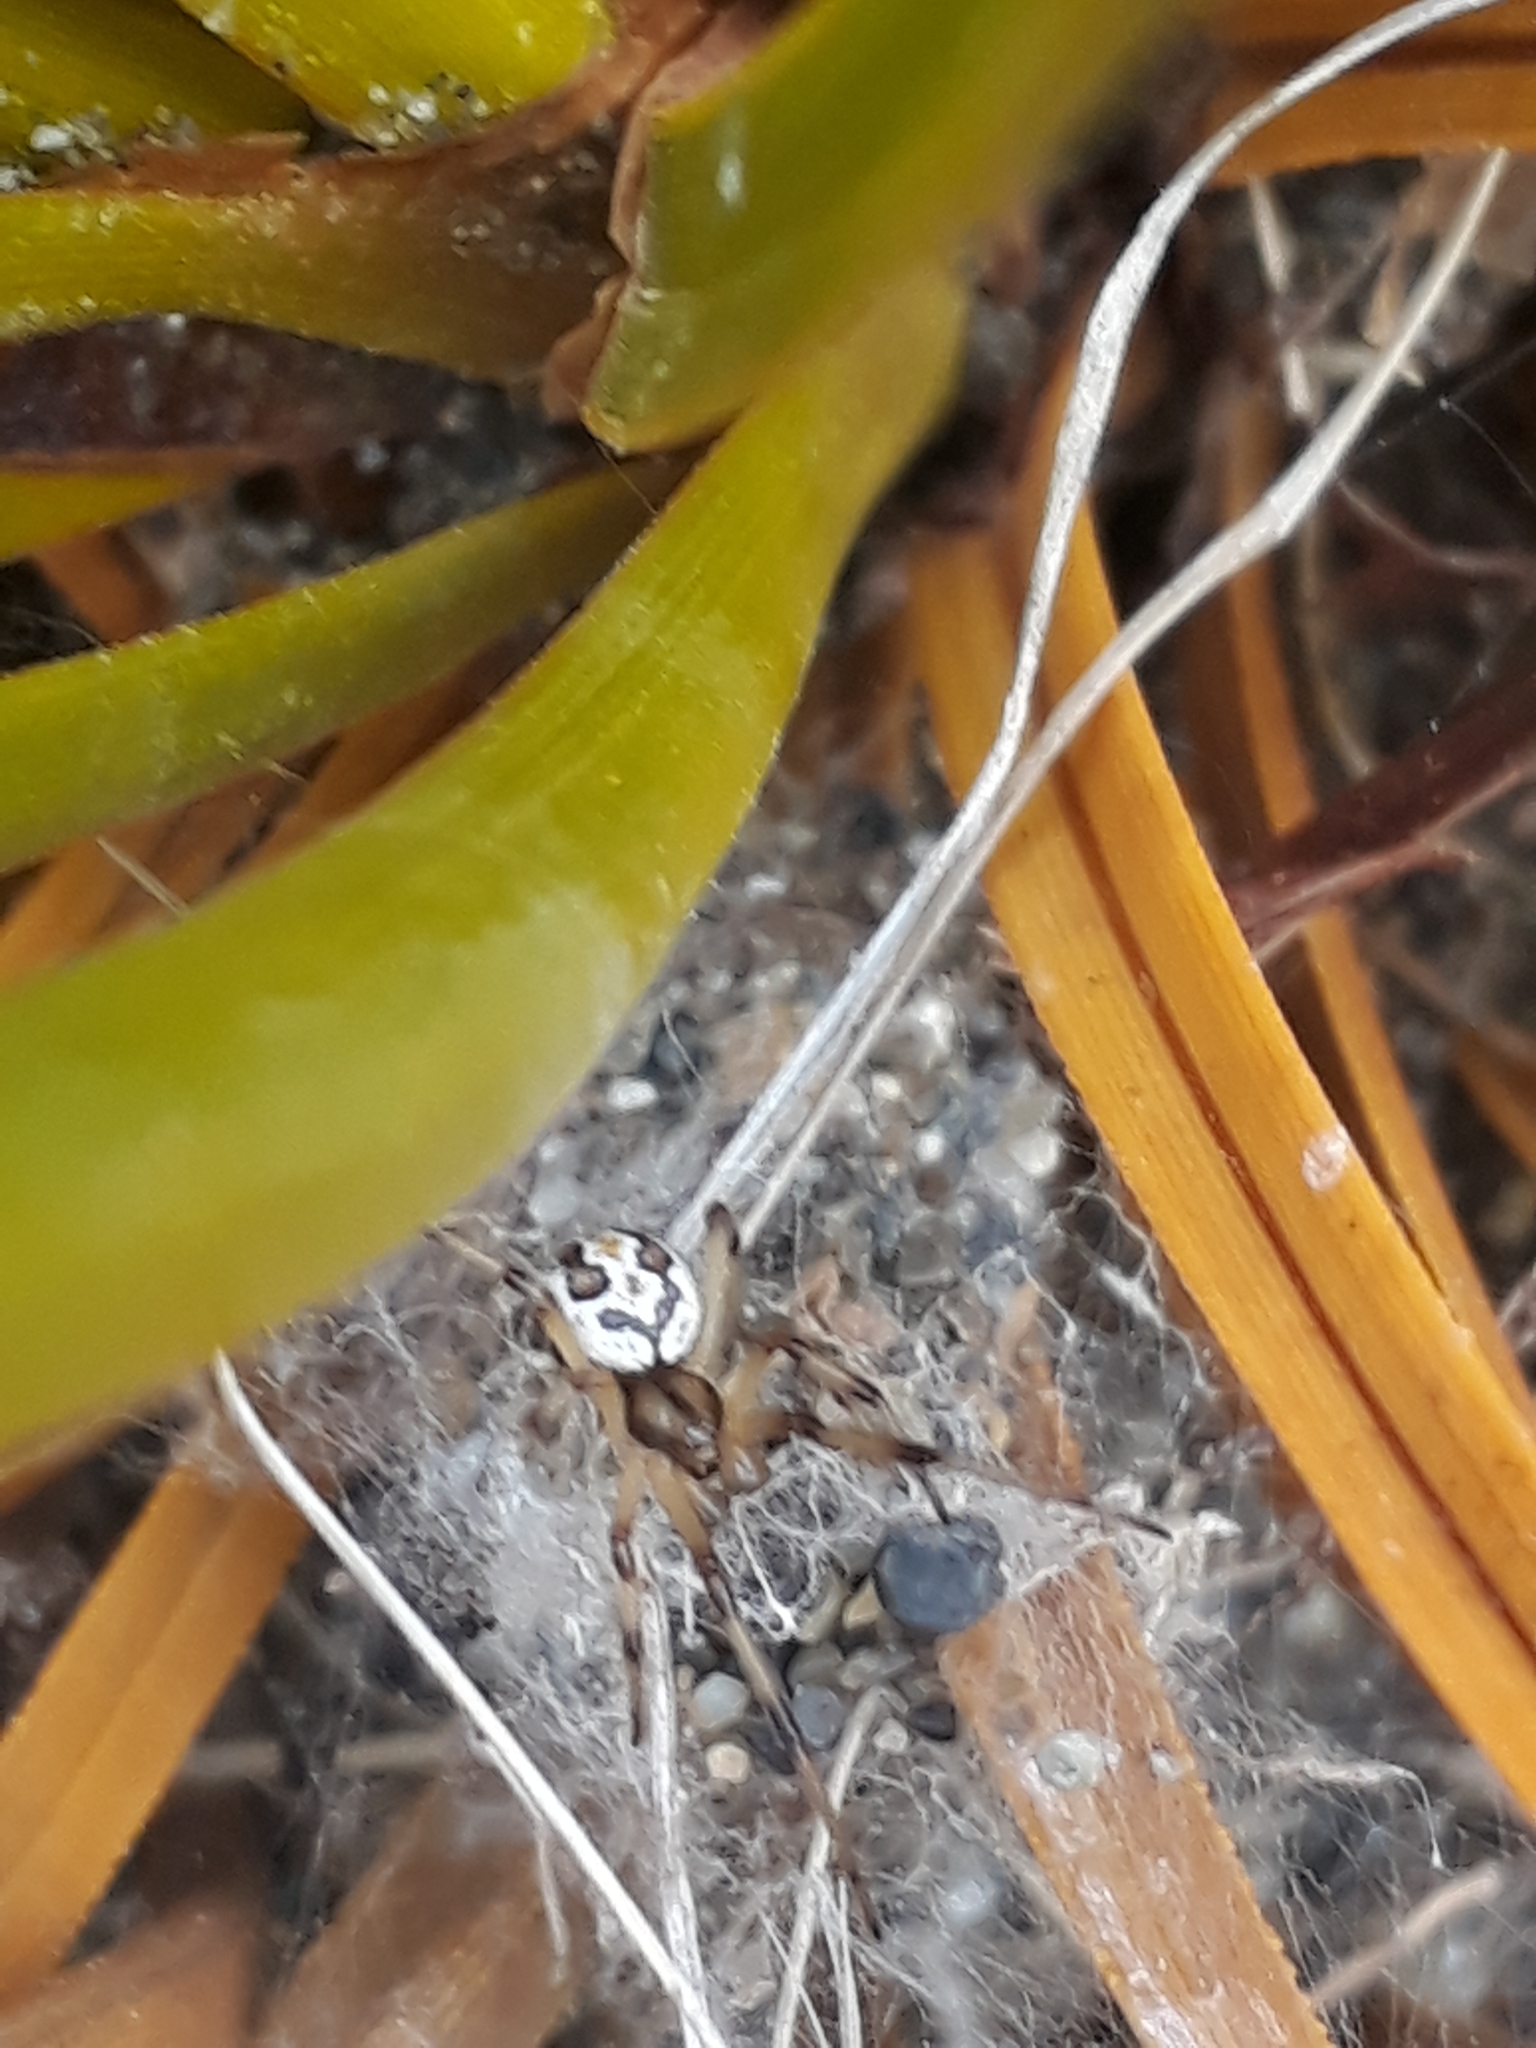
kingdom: Animalia
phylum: Arthropoda
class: Arachnida
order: Araneae
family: Theridiidae
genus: Latrodectus
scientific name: Latrodectus katipo
